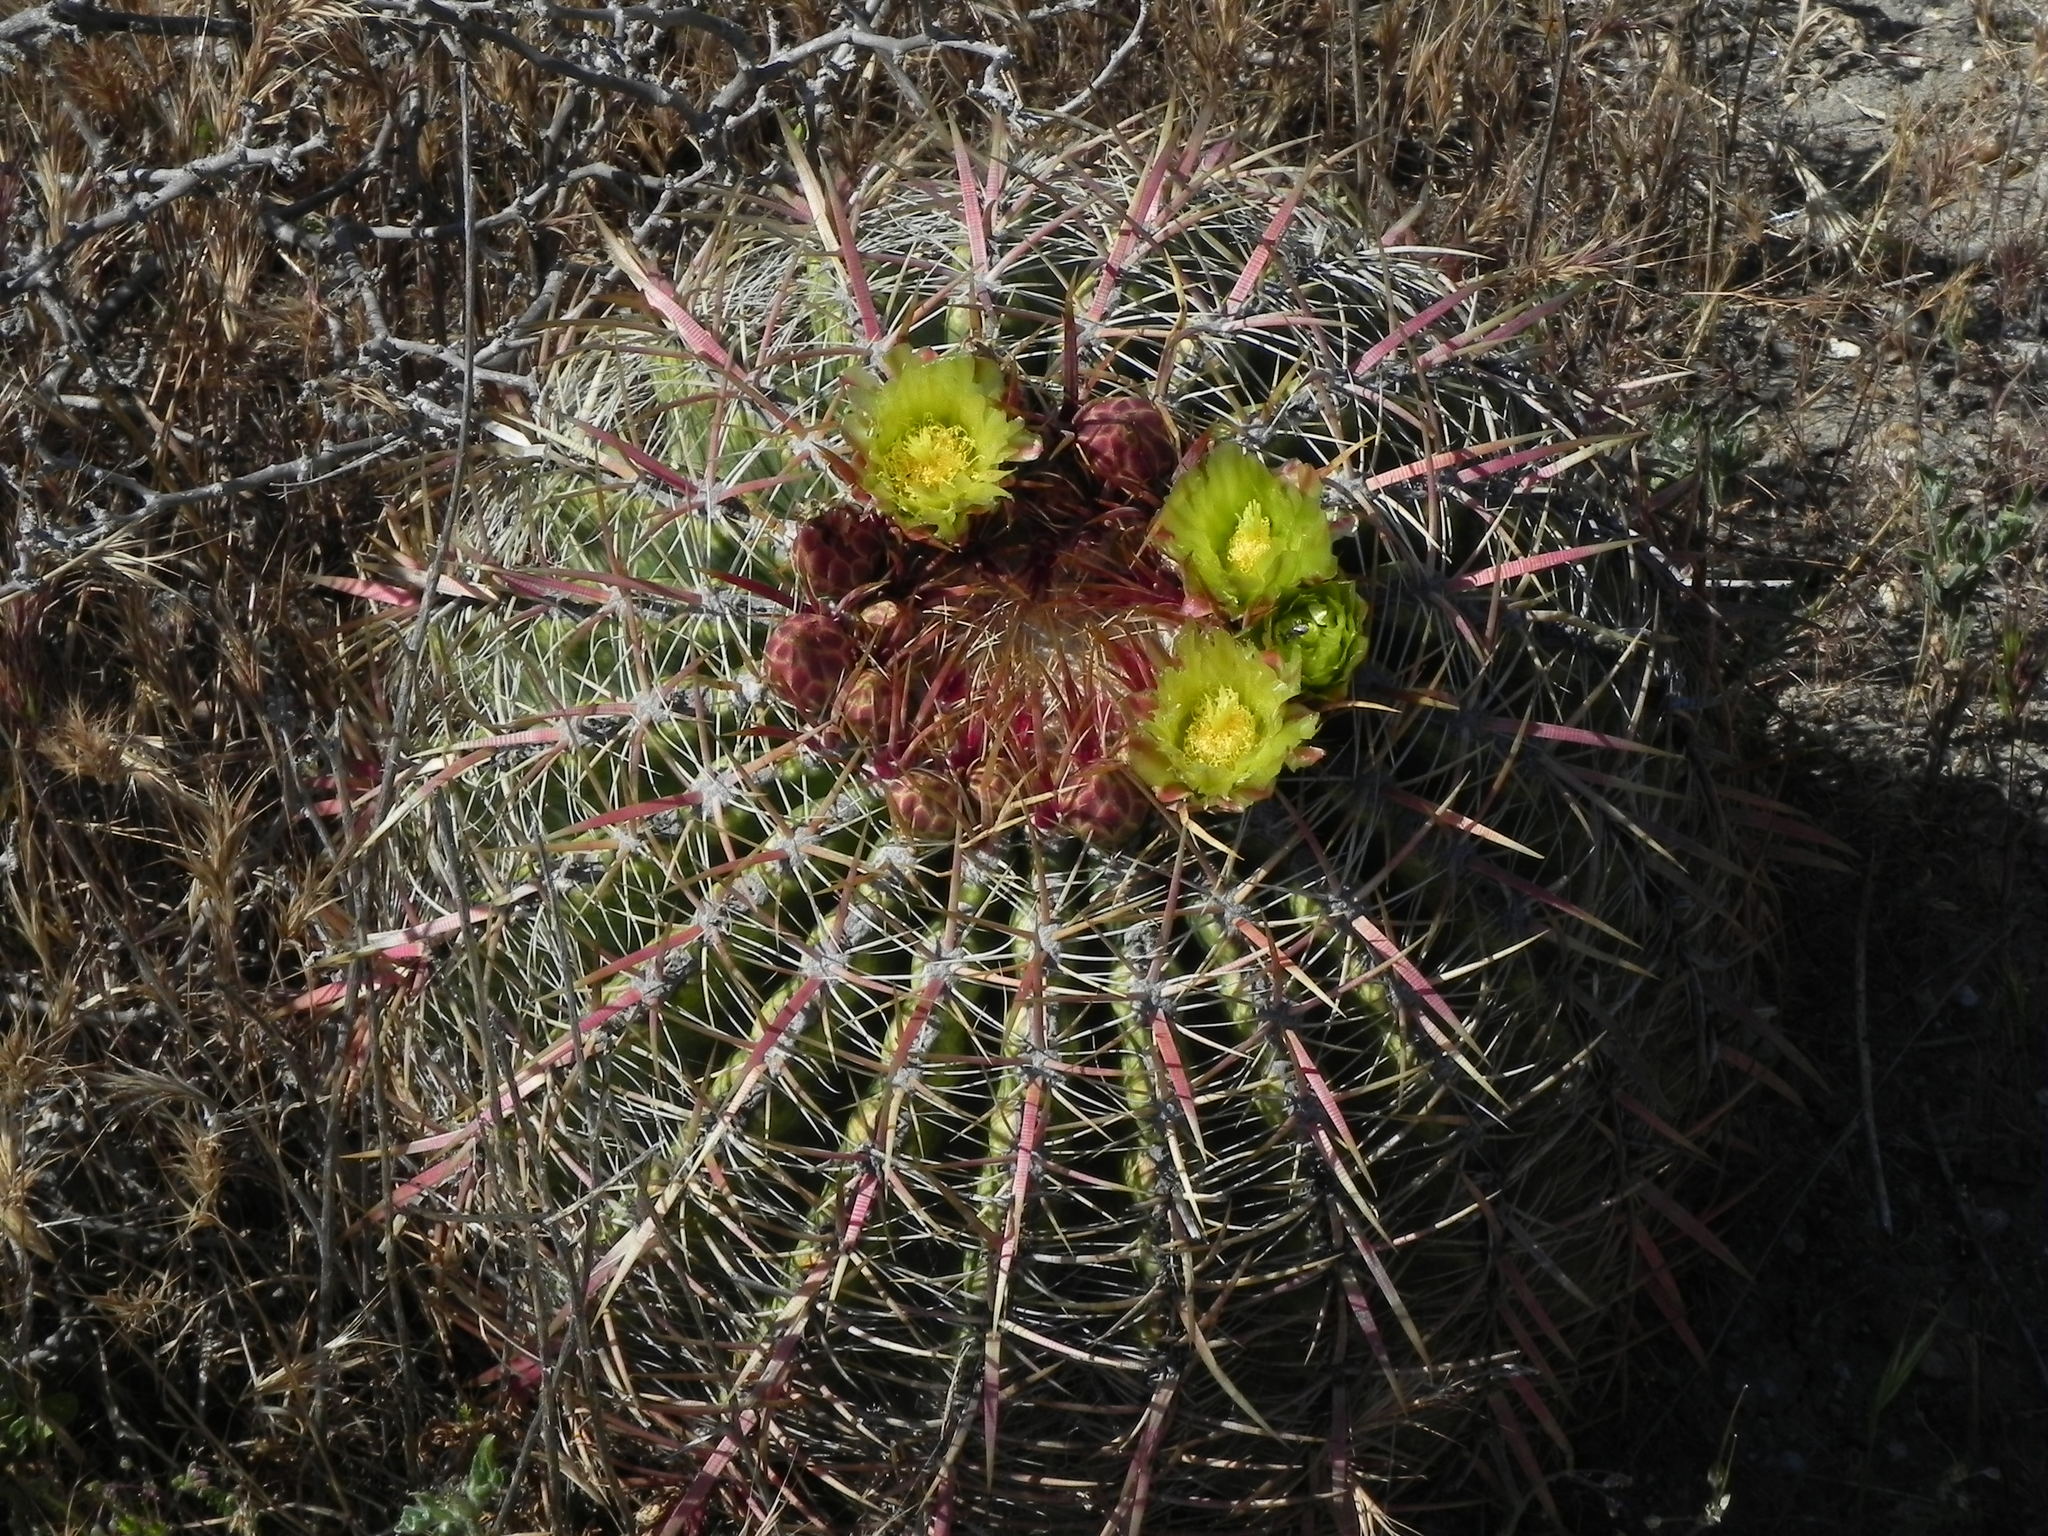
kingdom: Plantae
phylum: Tracheophyta
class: Magnoliopsida
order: Caryophyllales
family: Cactaceae
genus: Ferocactus
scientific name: Ferocactus viridescens
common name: San diego barrel cactus
